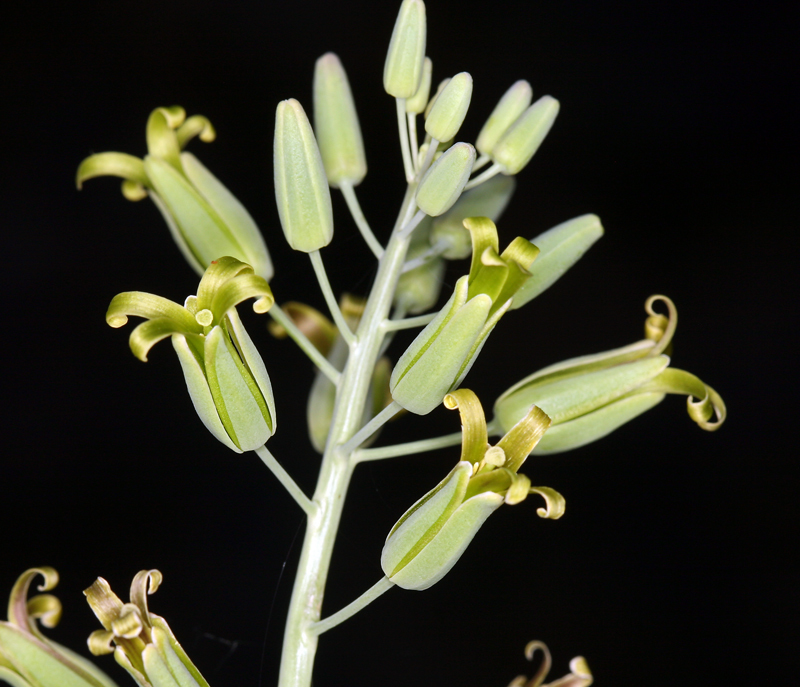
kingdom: Plantae
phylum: Tracheophyta
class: Magnoliopsida
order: Brassicales
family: Brassicaceae
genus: Streptanthus
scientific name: Streptanthus glaucus
